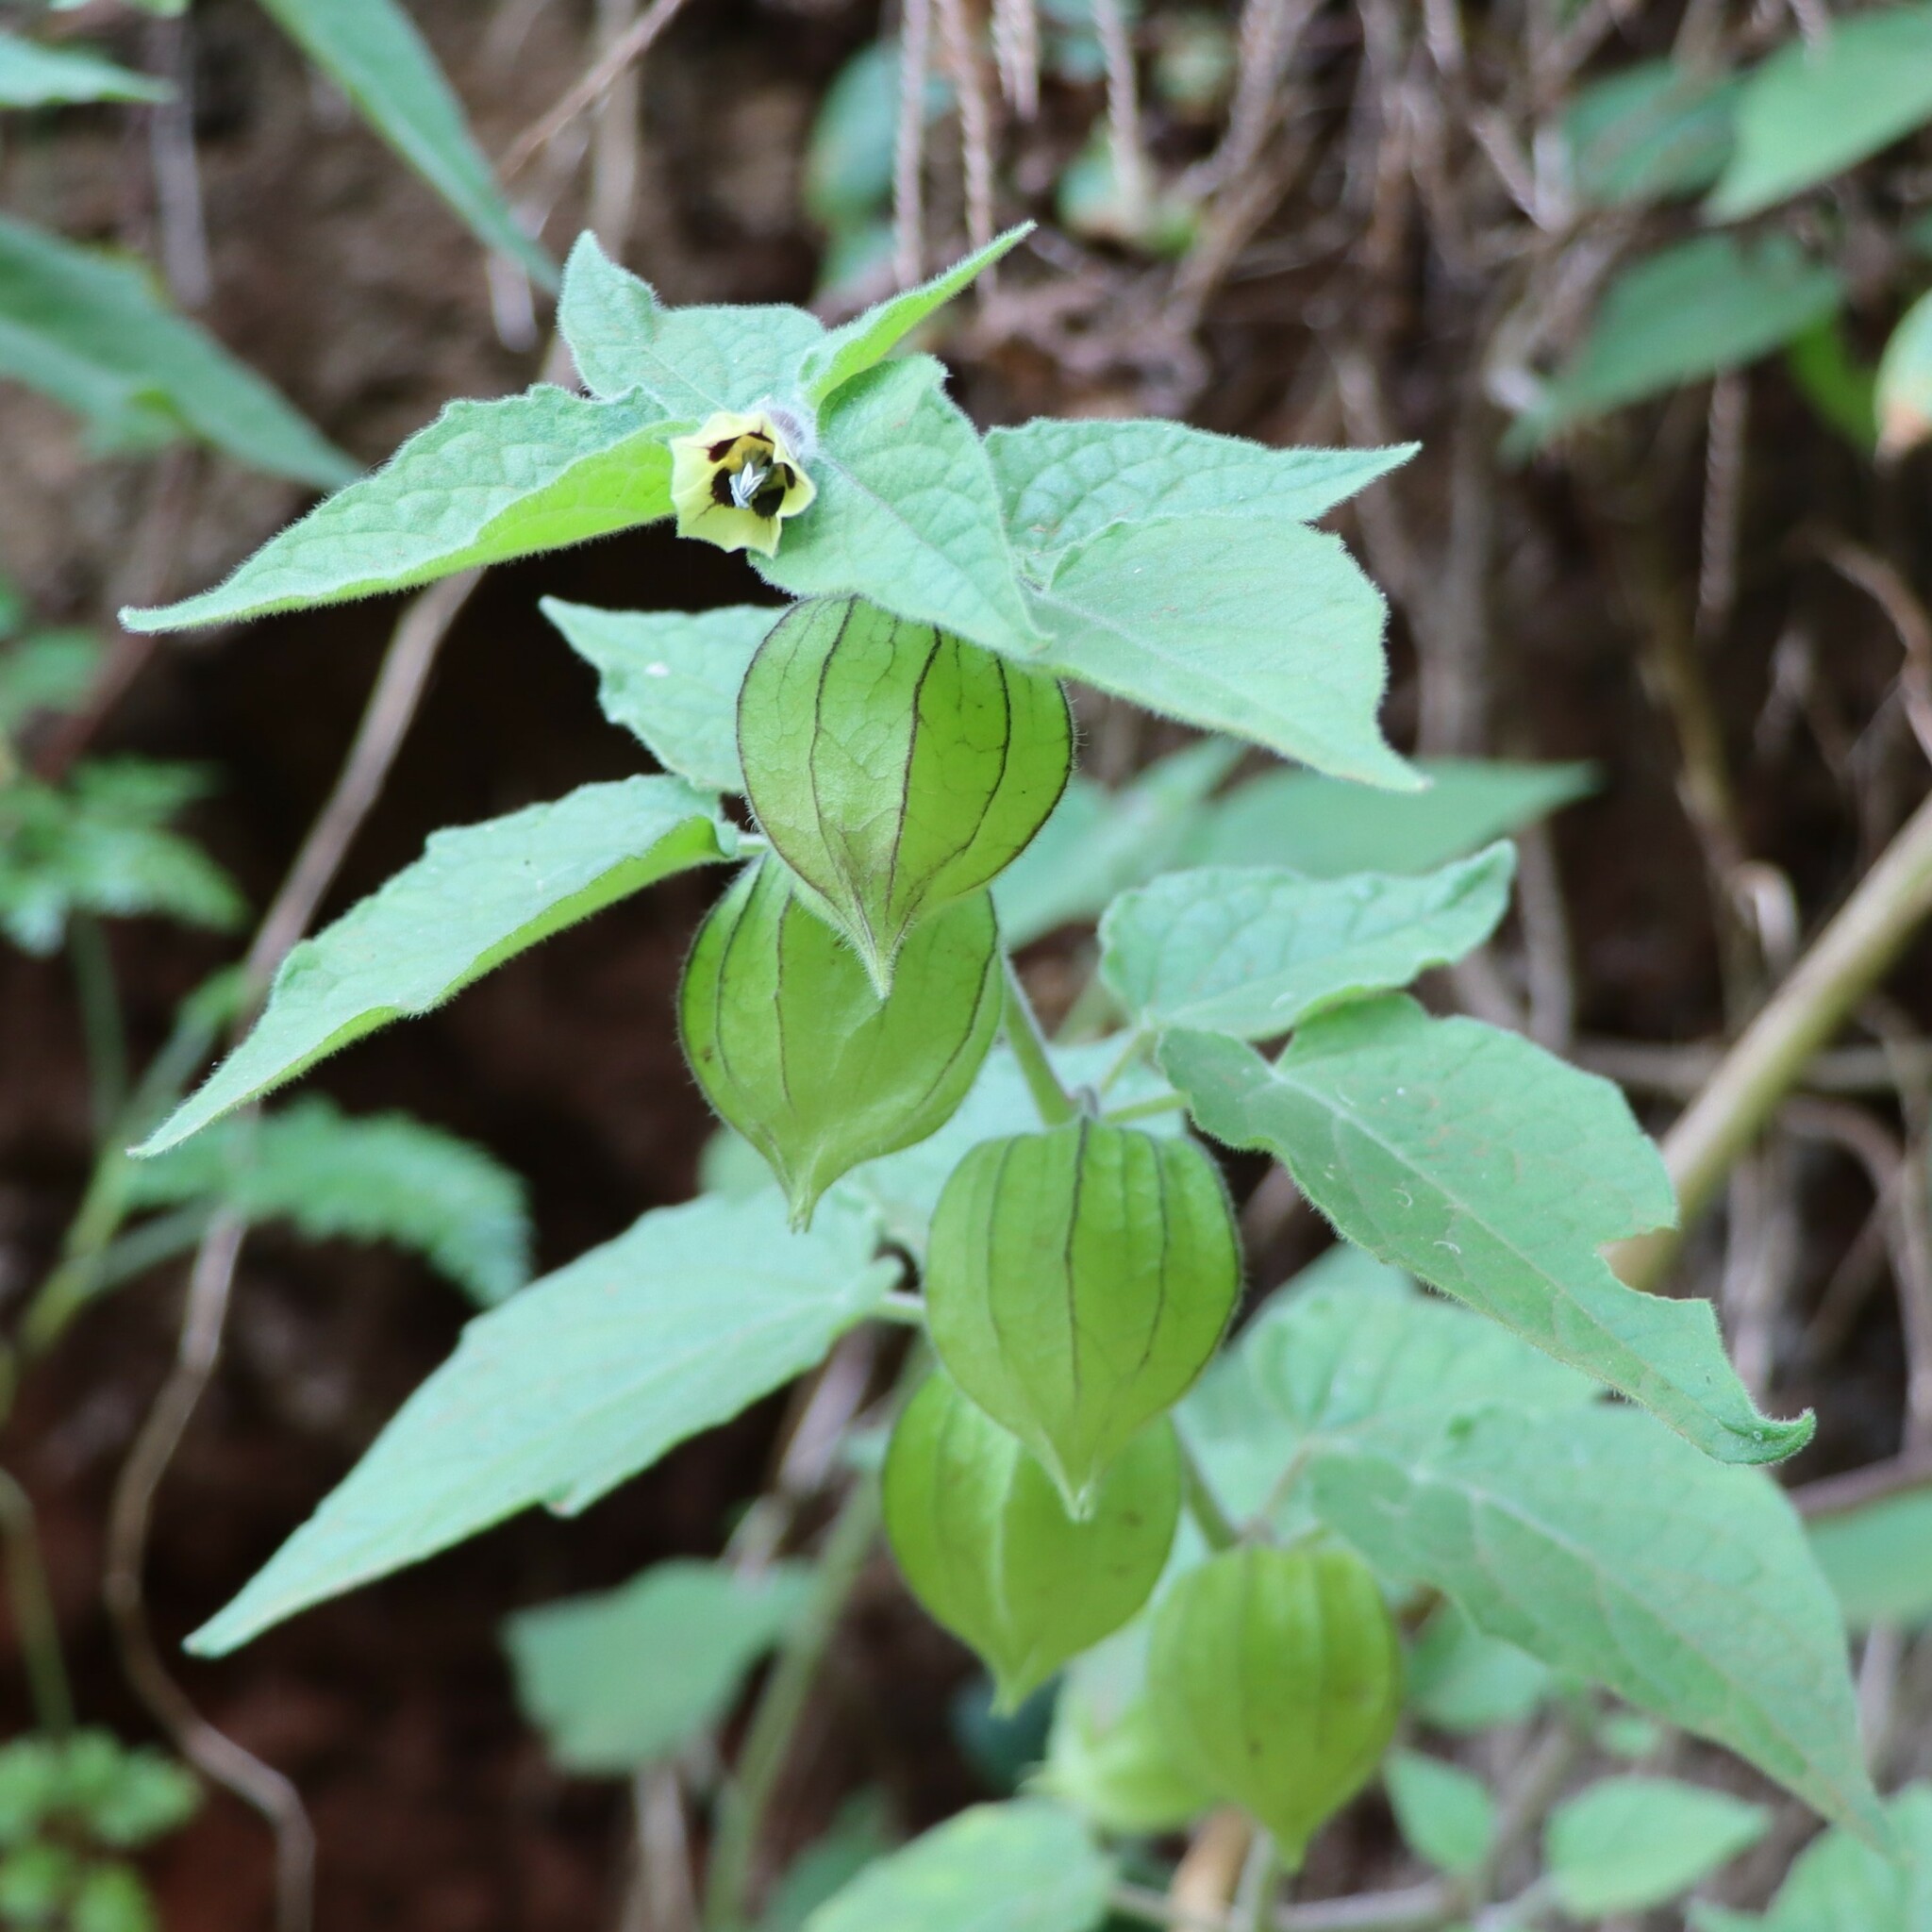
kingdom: Plantae
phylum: Tracheophyta
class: Magnoliopsida
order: Solanales
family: Solanaceae
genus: Physalis
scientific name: Physalis peruviana
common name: Cape-gooseberry
